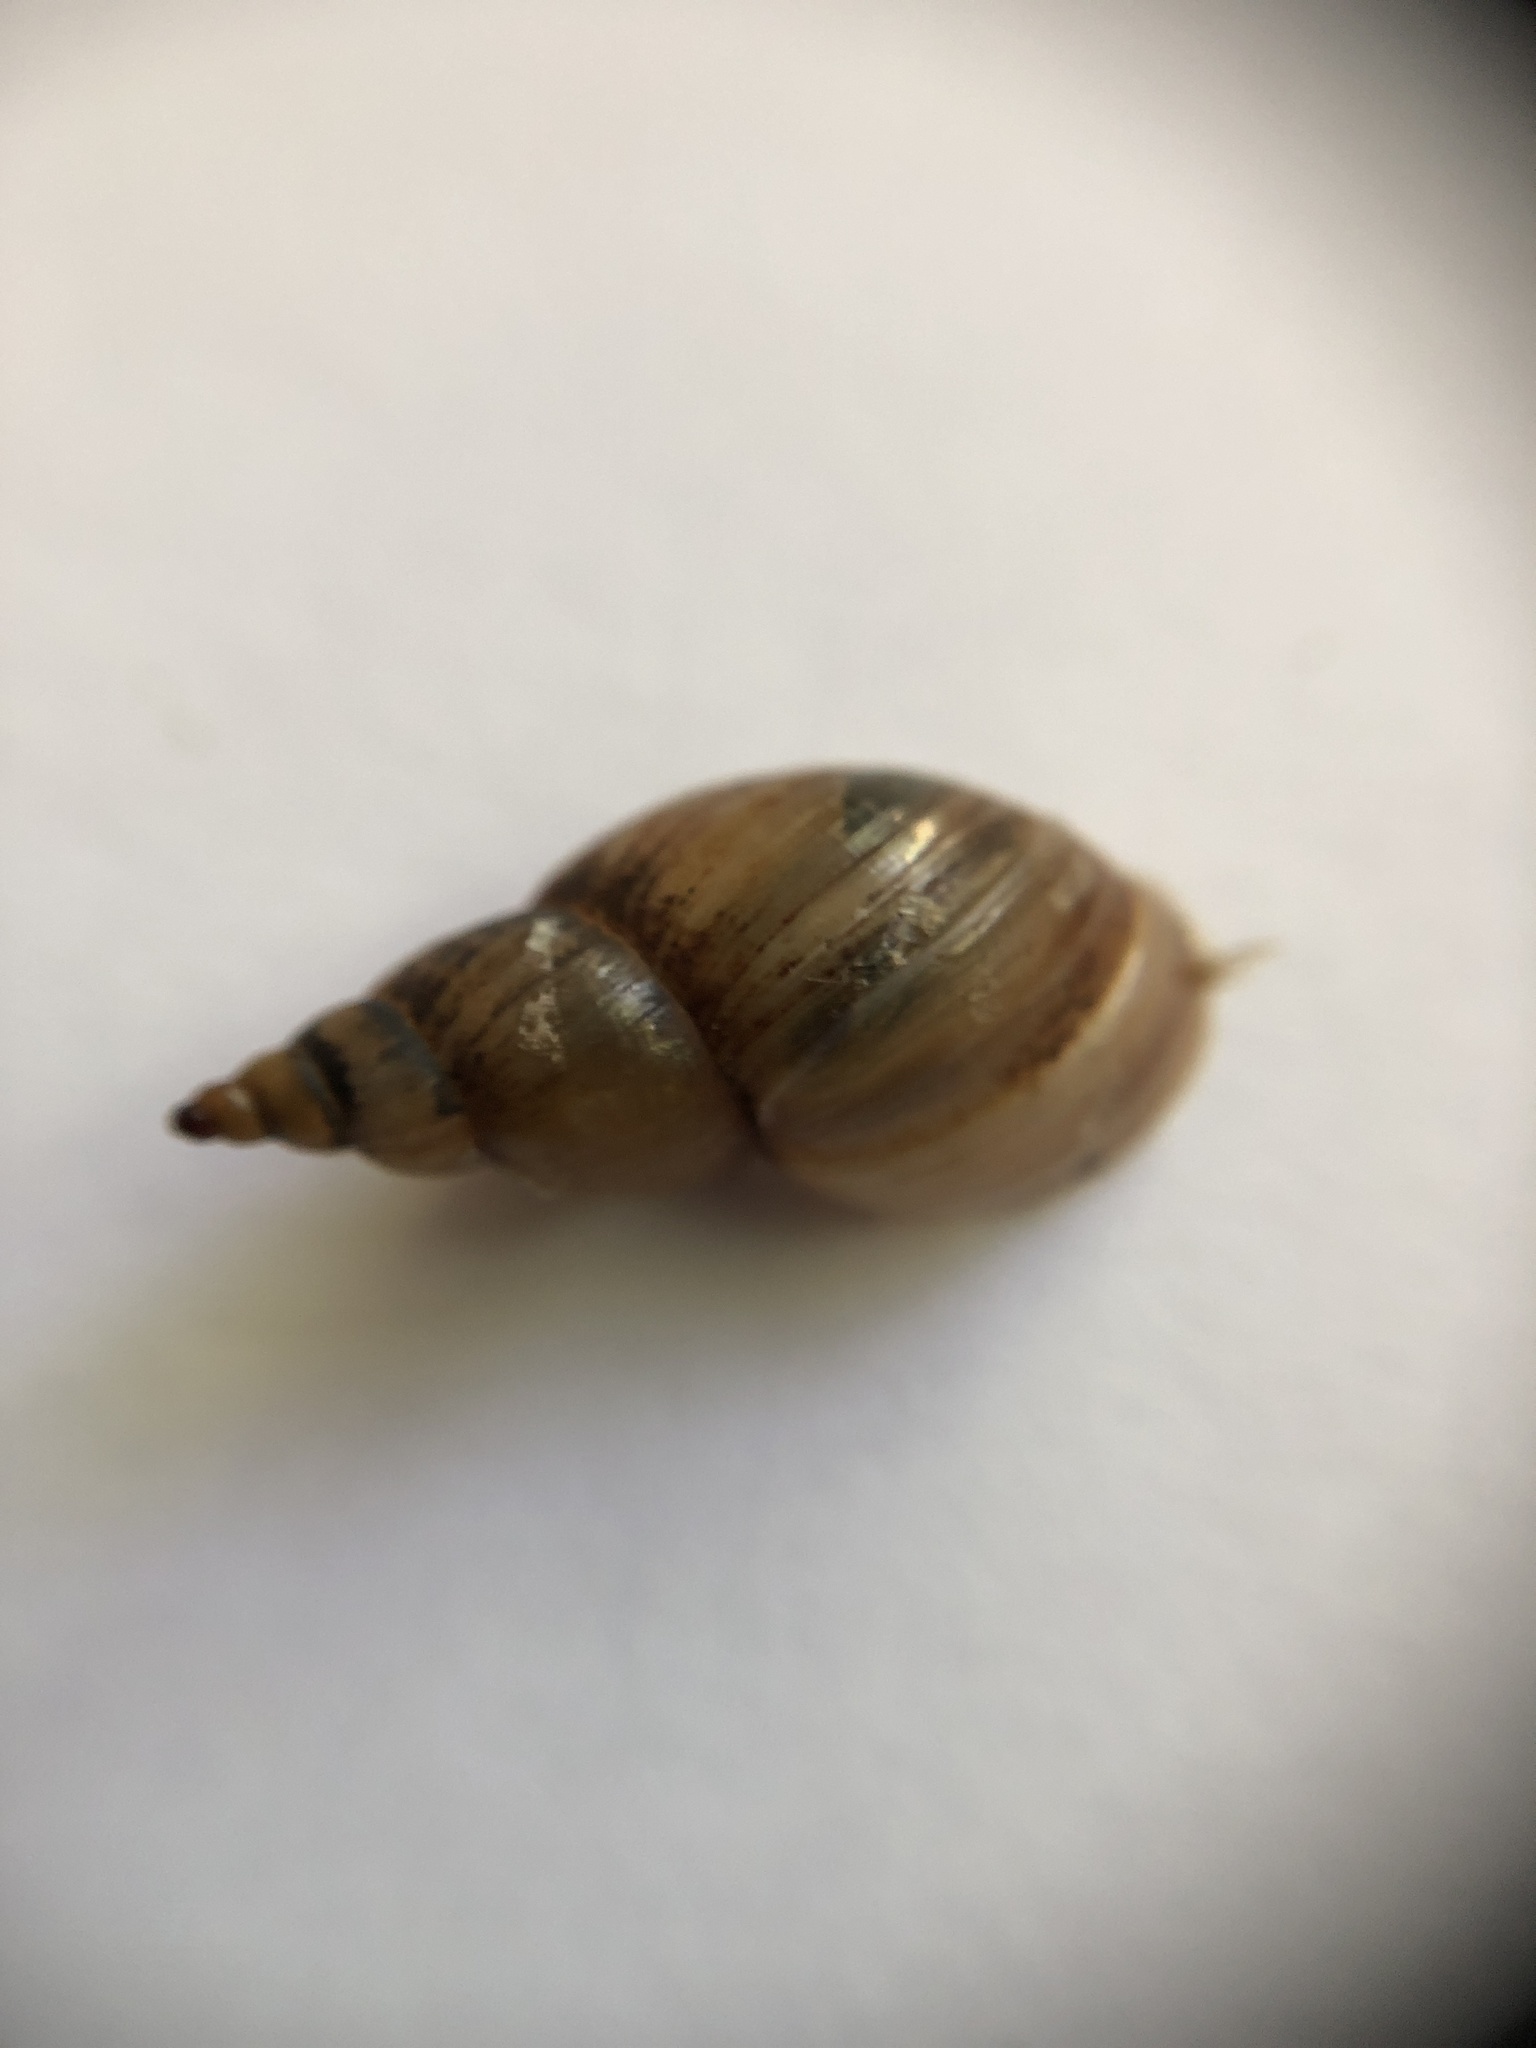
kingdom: Animalia
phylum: Mollusca
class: Gastropoda
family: Lymnaeidae
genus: Ladislavella
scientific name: Ladislavella elodes
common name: Marsh pondsnail
